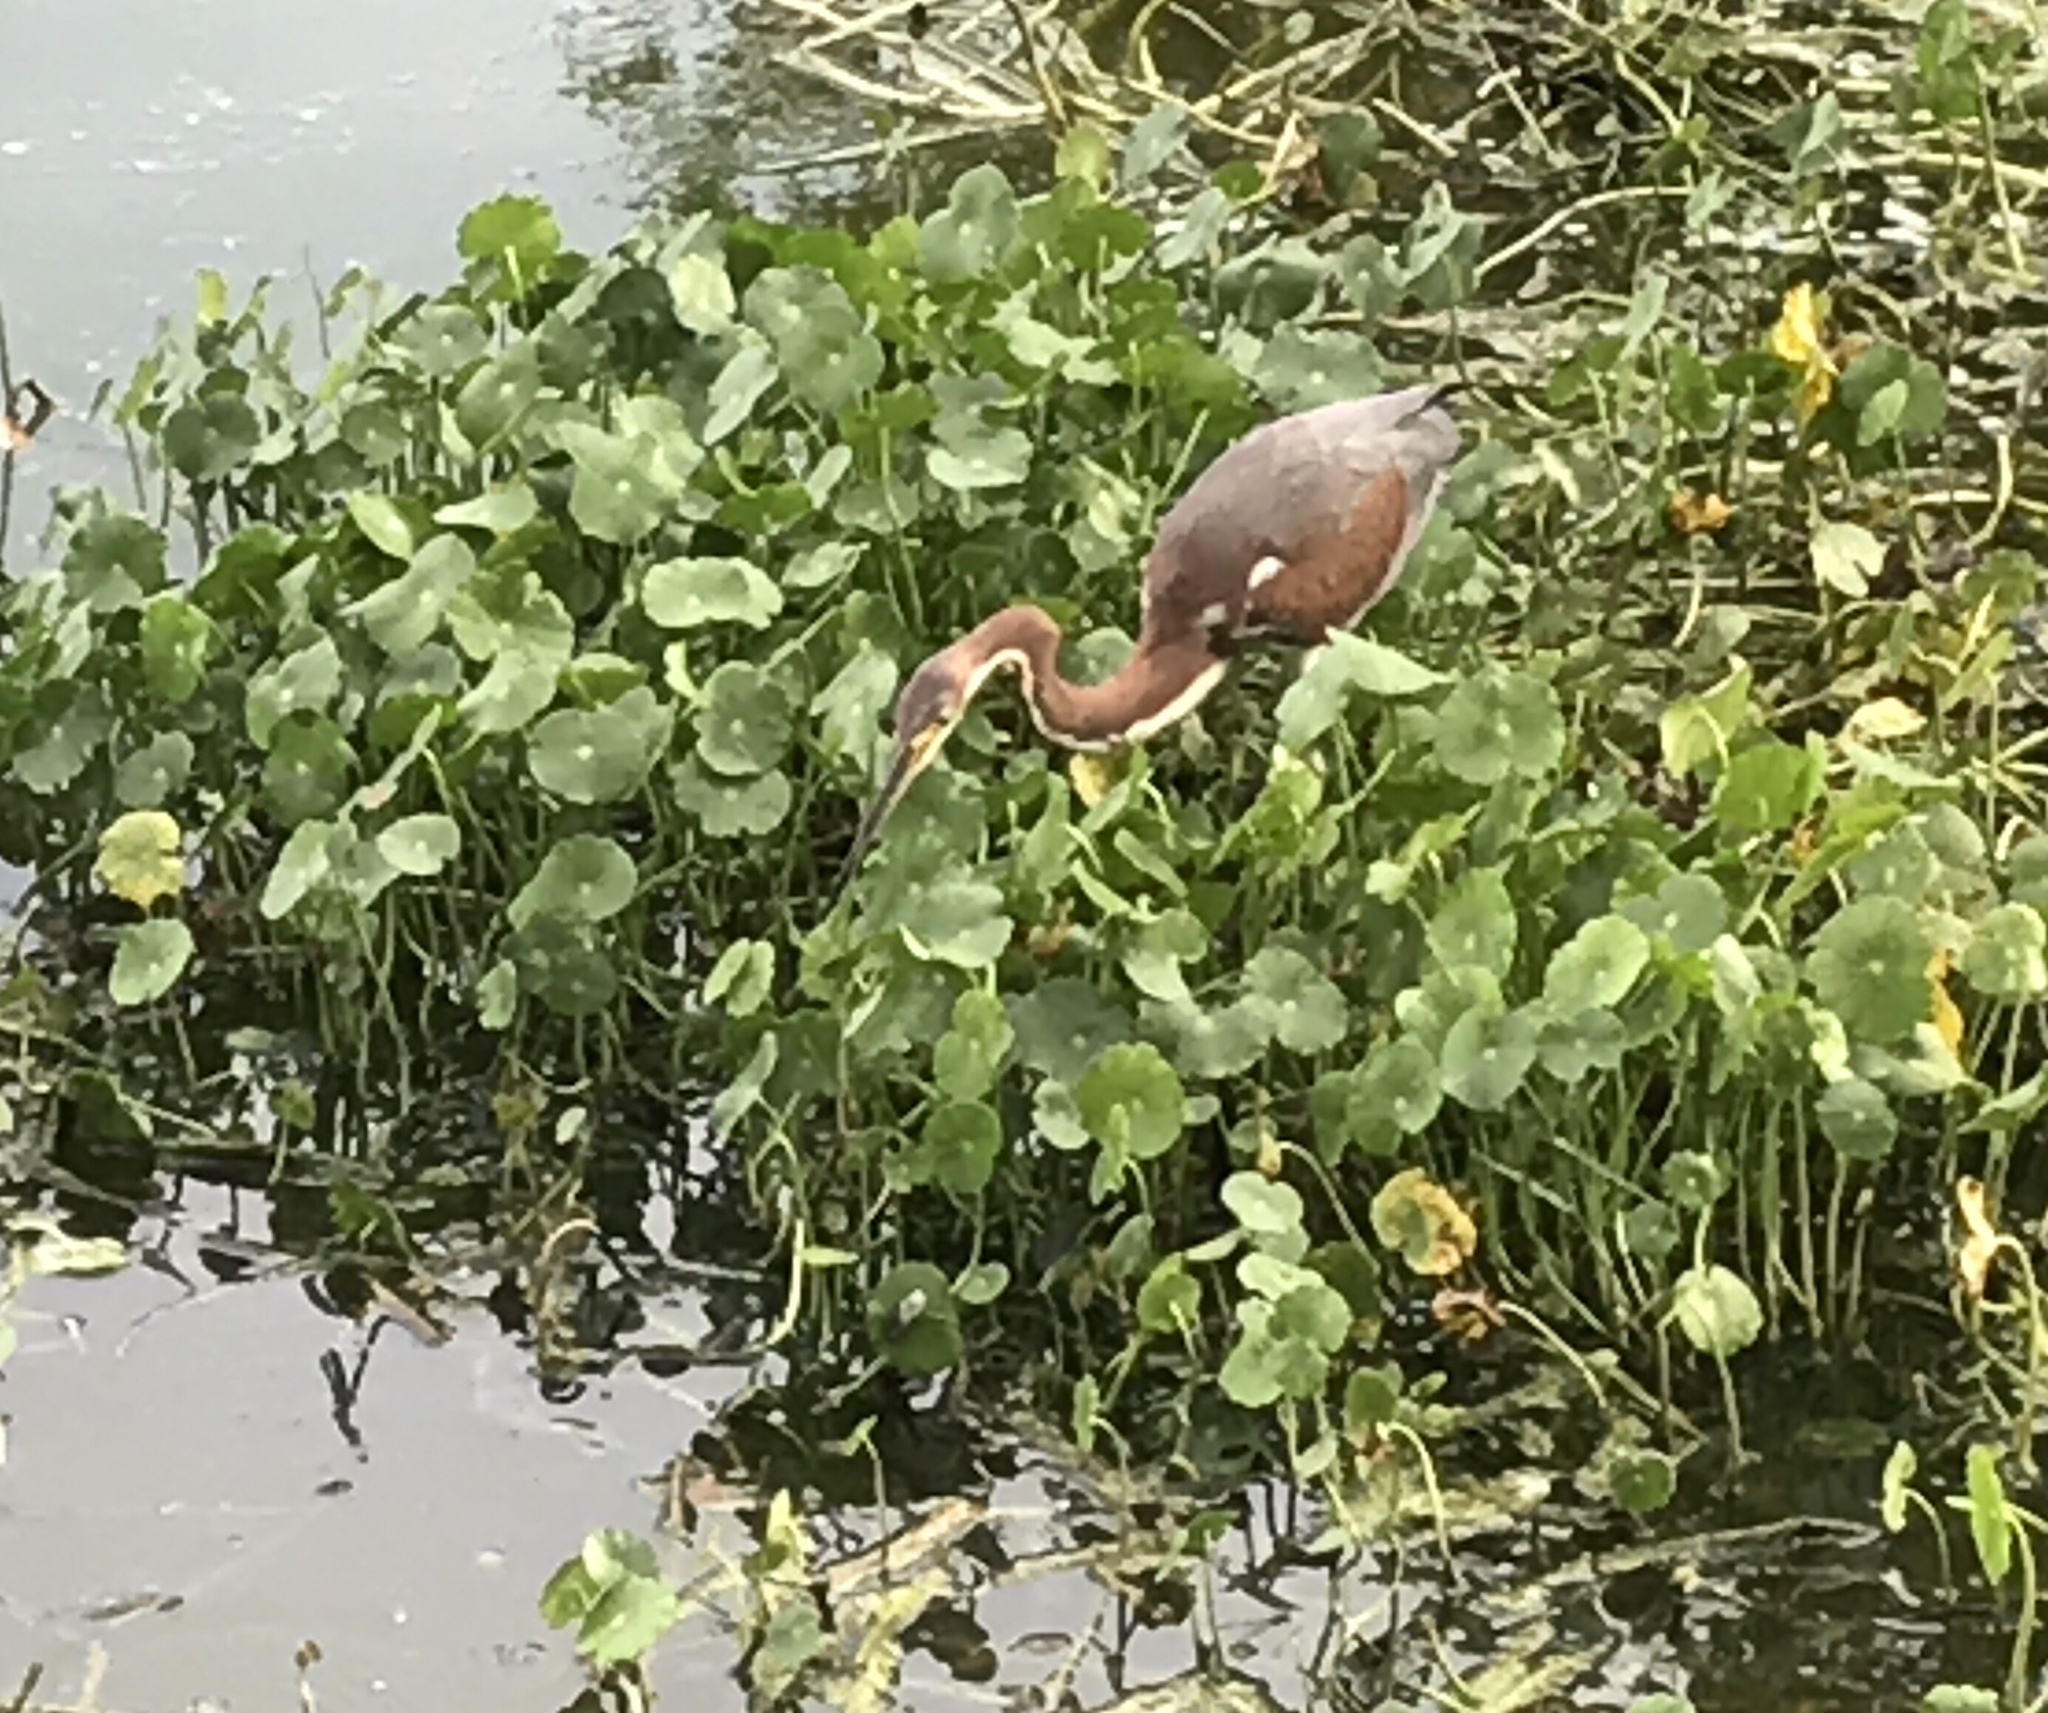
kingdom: Animalia
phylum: Chordata
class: Aves
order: Pelecaniformes
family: Ardeidae
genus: Egretta
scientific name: Egretta tricolor
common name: Tricolored heron
